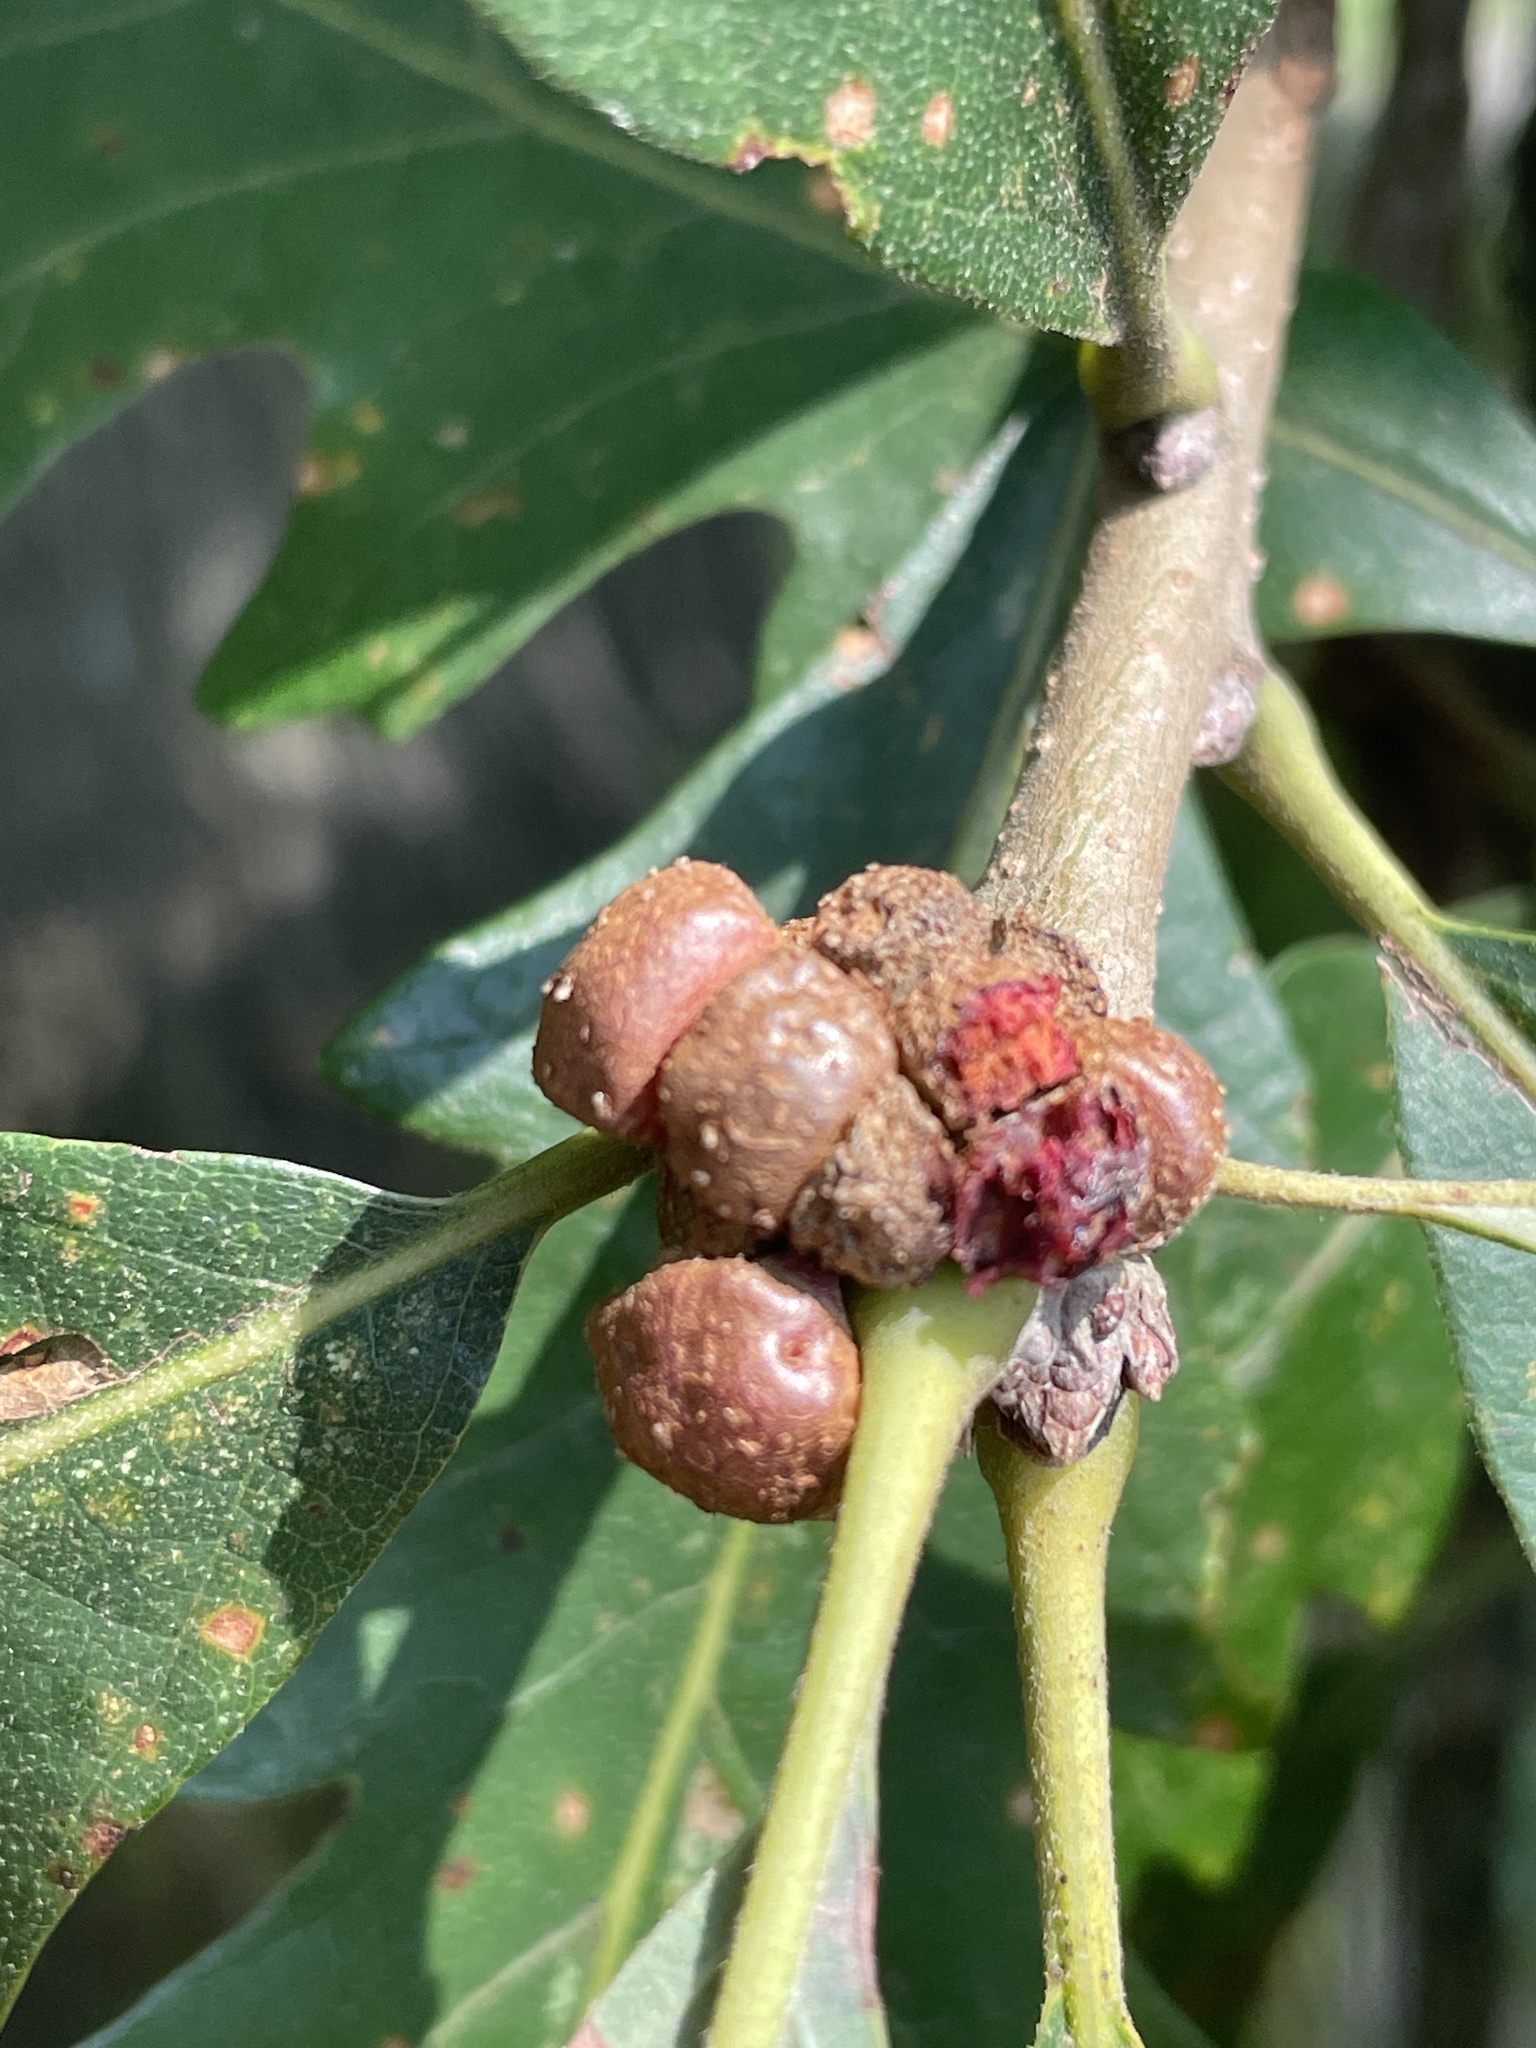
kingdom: Animalia
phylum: Arthropoda
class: Insecta
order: Hymenoptera
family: Cynipidae
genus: Andricus
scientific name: Andricus
